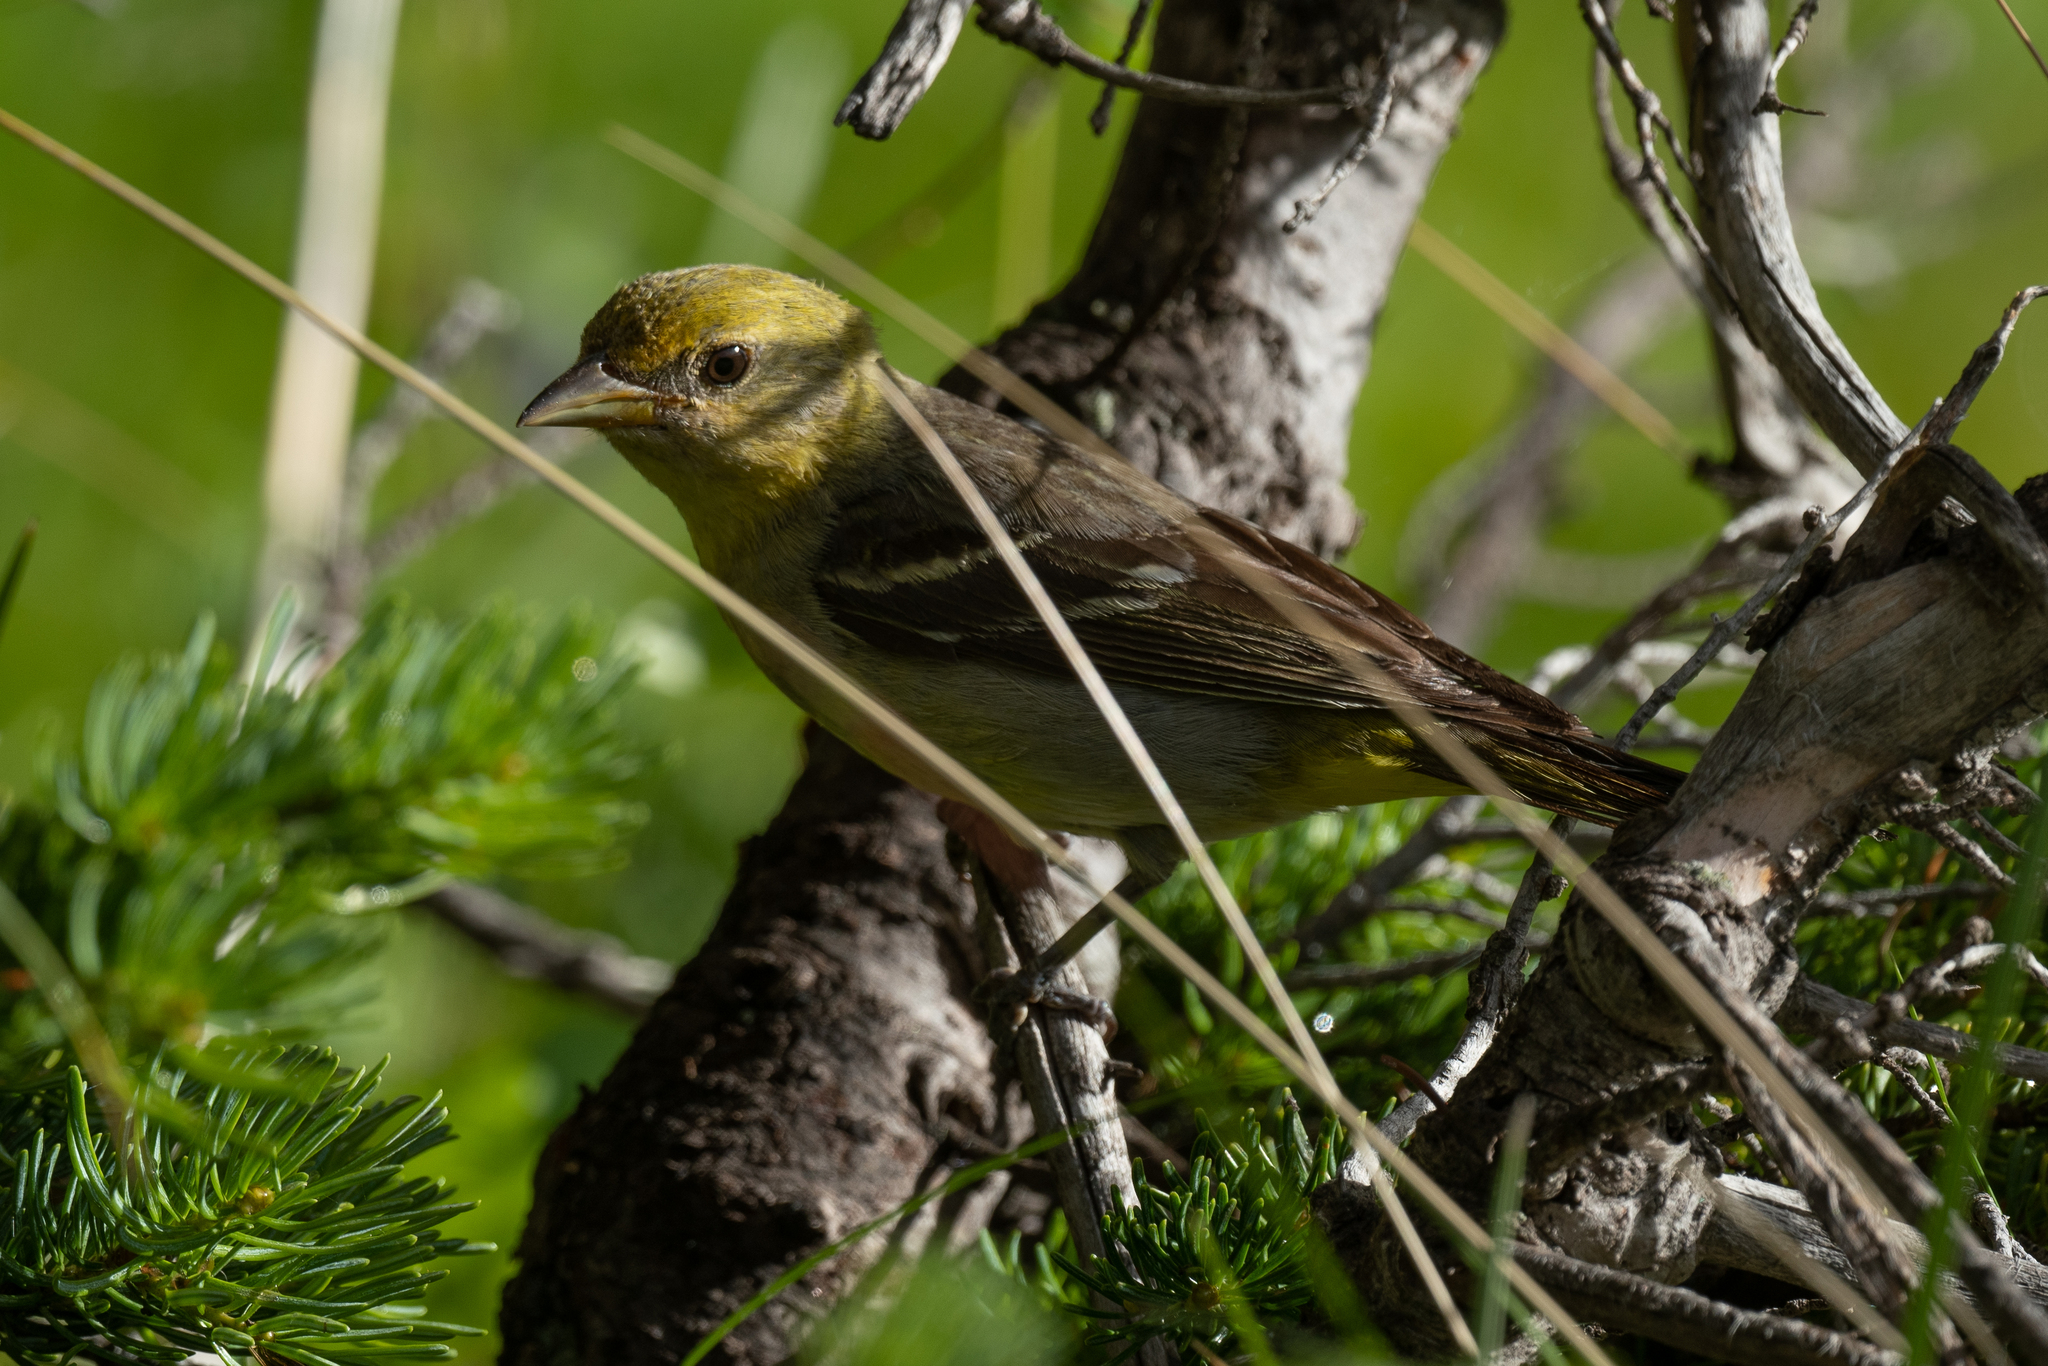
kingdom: Animalia
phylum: Chordata
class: Aves
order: Passeriformes
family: Cardinalidae
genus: Piranga
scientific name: Piranga ludoviciana
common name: Western tanager
